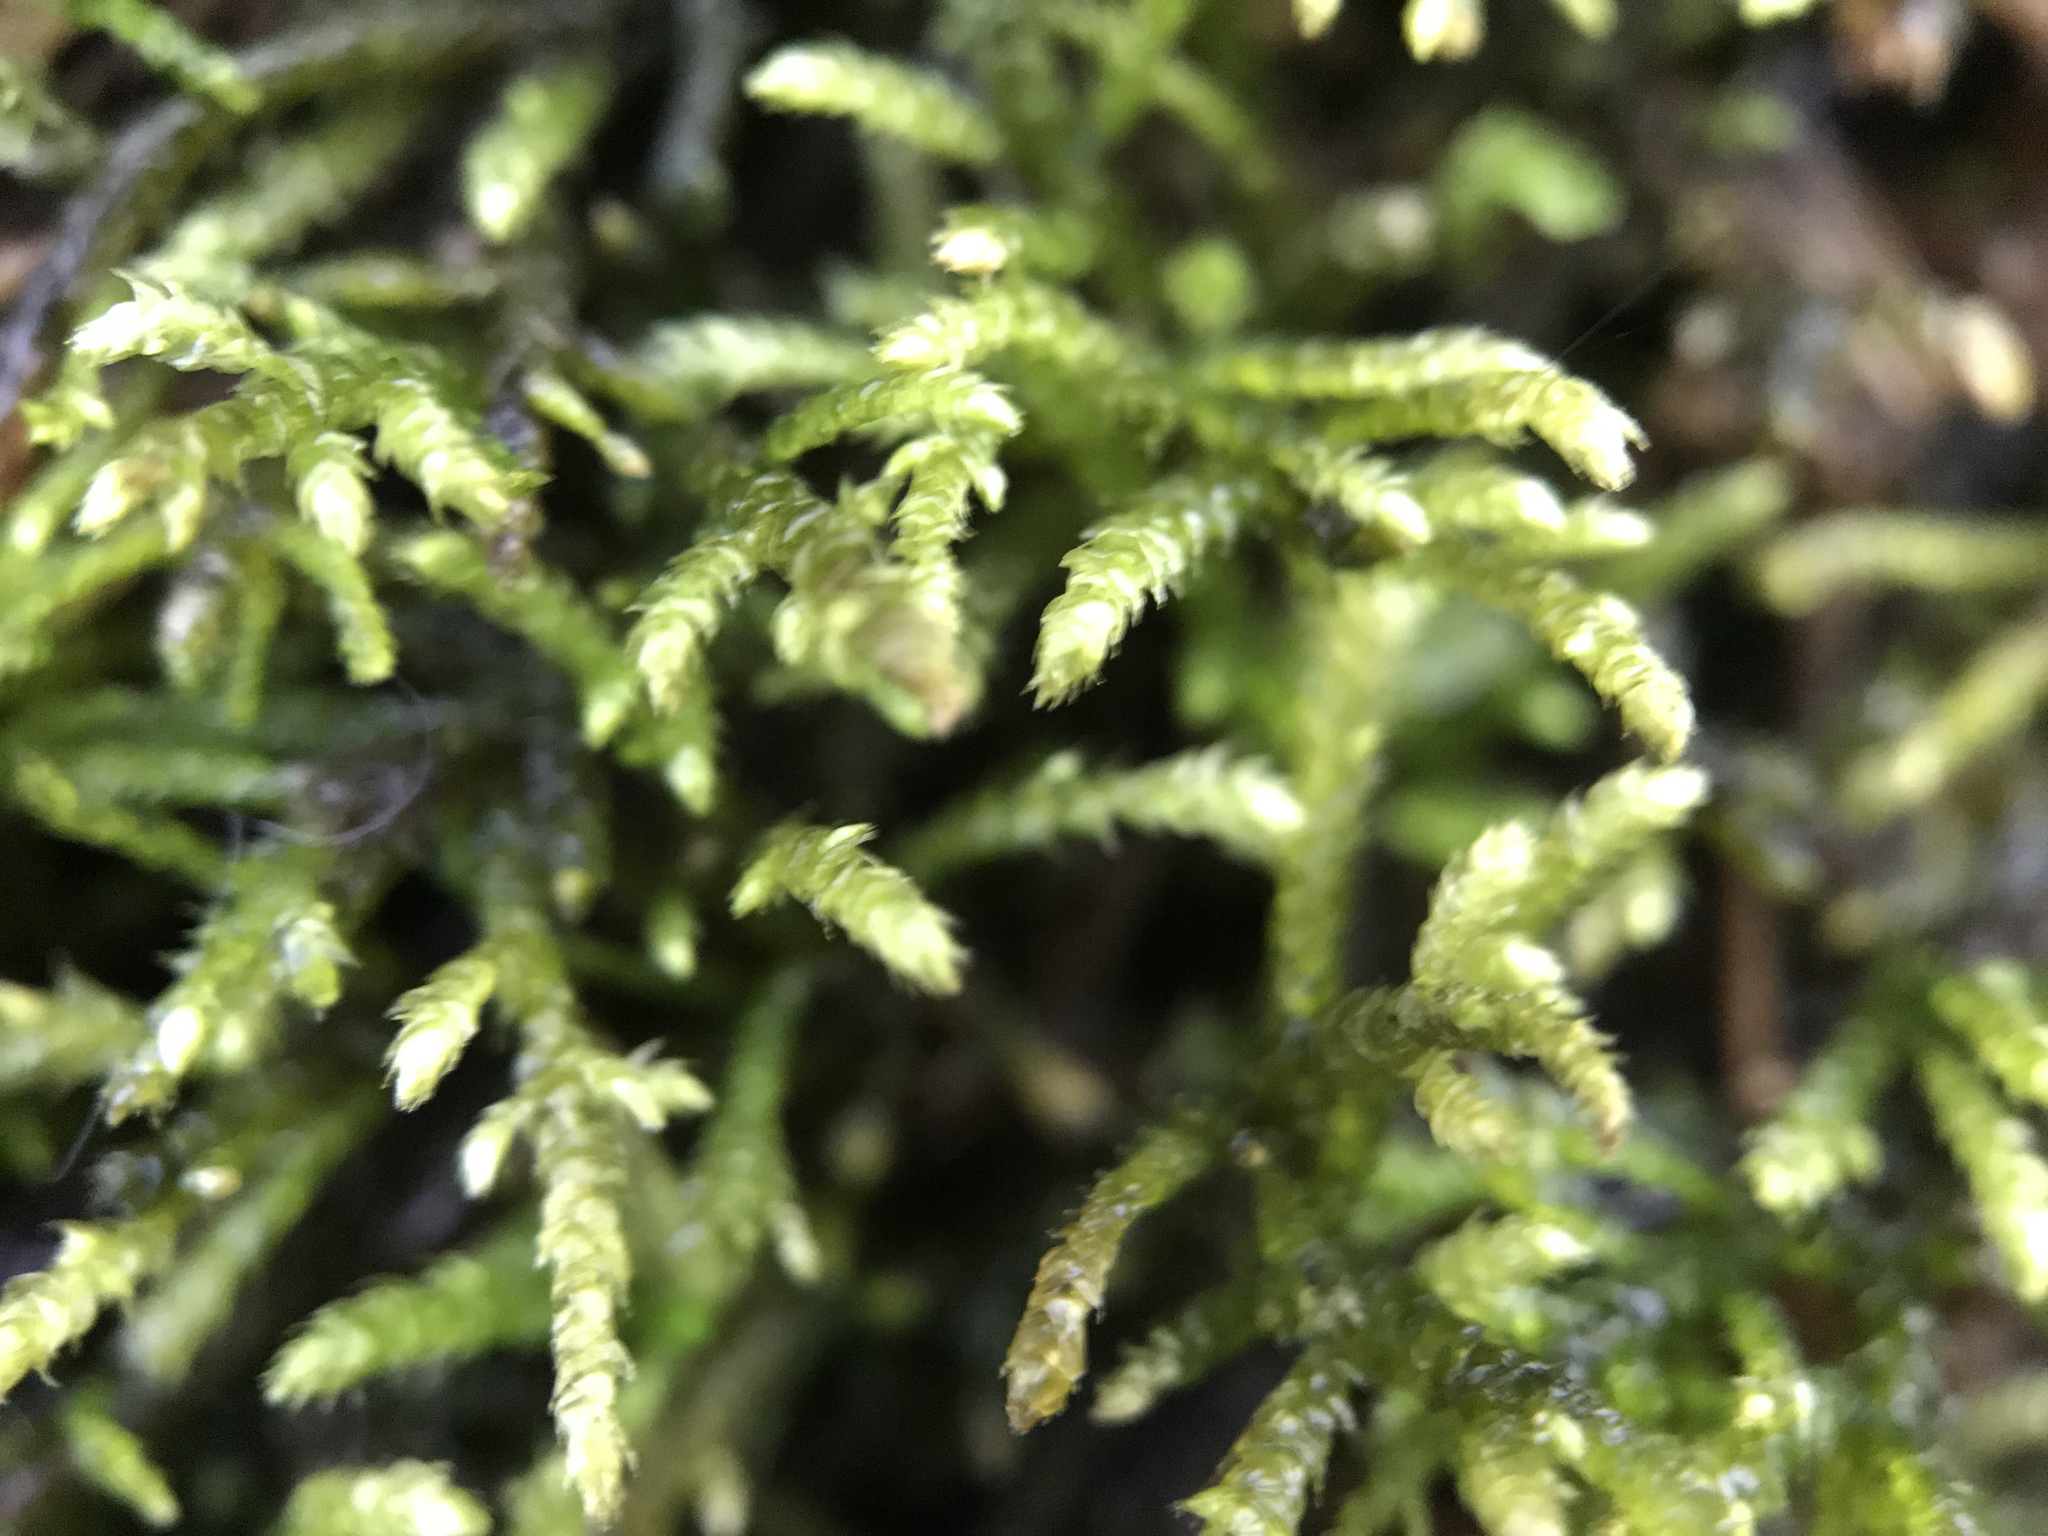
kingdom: Plantae
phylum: Bryophyta
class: Bryopsida
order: Hypnales
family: Amblystegiaceae
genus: Cratoneuron
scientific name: Cratoneuron filicinum
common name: Fern-leaved hook moss
